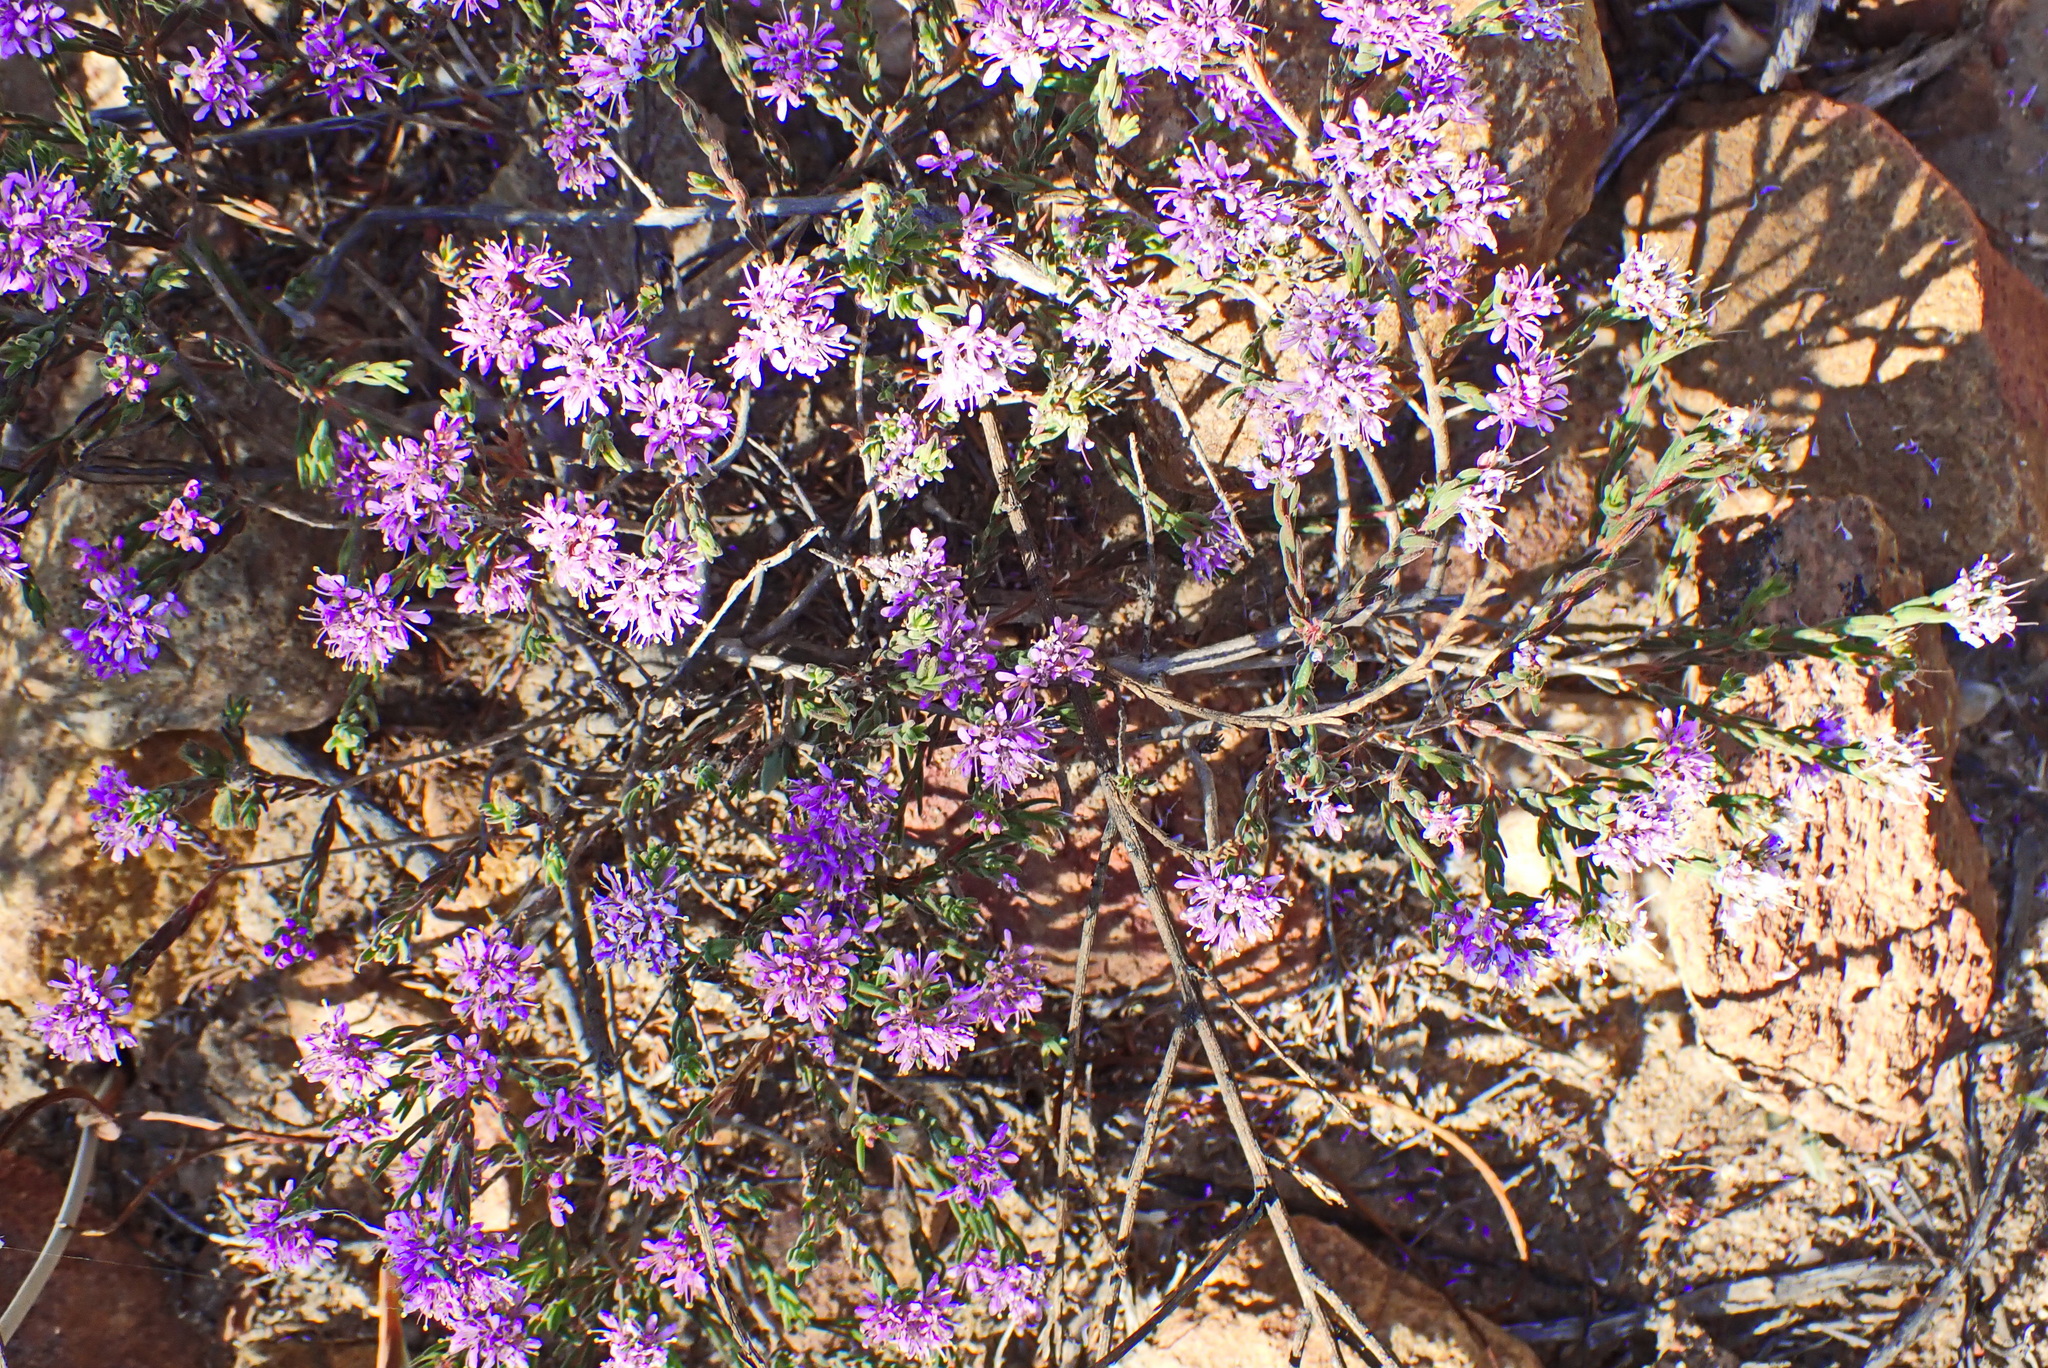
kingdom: Plantae
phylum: Tracheophyta
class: Magnoliopsida
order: Sapindales
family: Rutaceae
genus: Agathosma
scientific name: Agathosma
